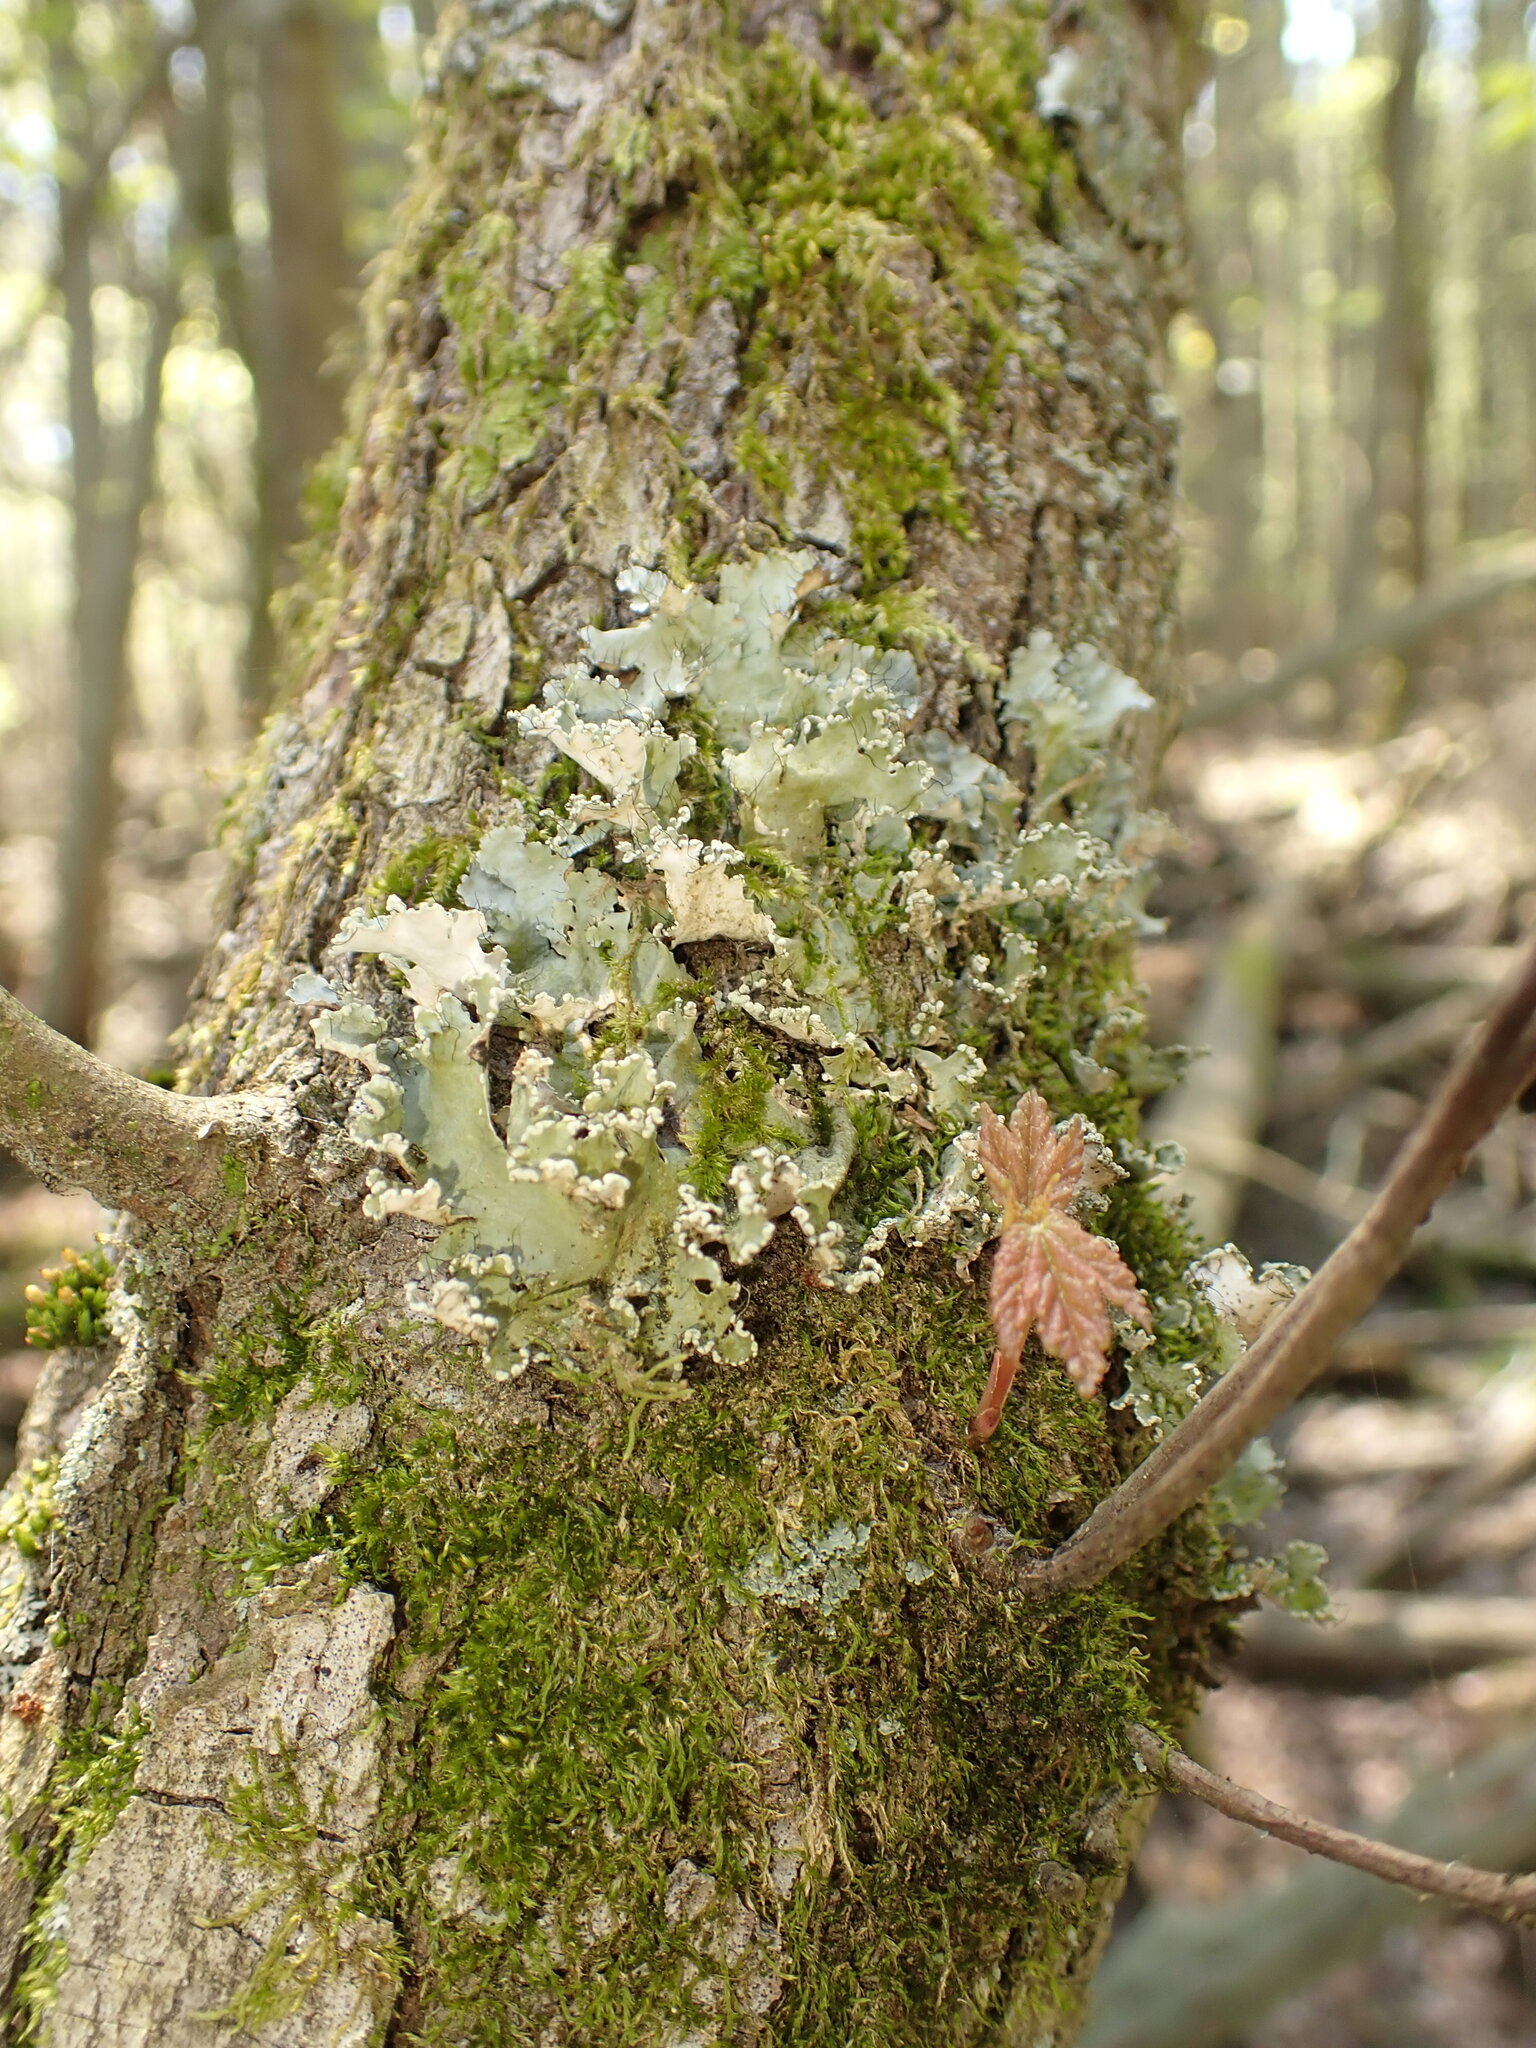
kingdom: Fungi
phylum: Ascomycota
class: Lecanoromycetes
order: Lecanorales
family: Parmeliaceae
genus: Parmotrema
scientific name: Parmotrema hypotropum
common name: Powdered ruffle lichen
